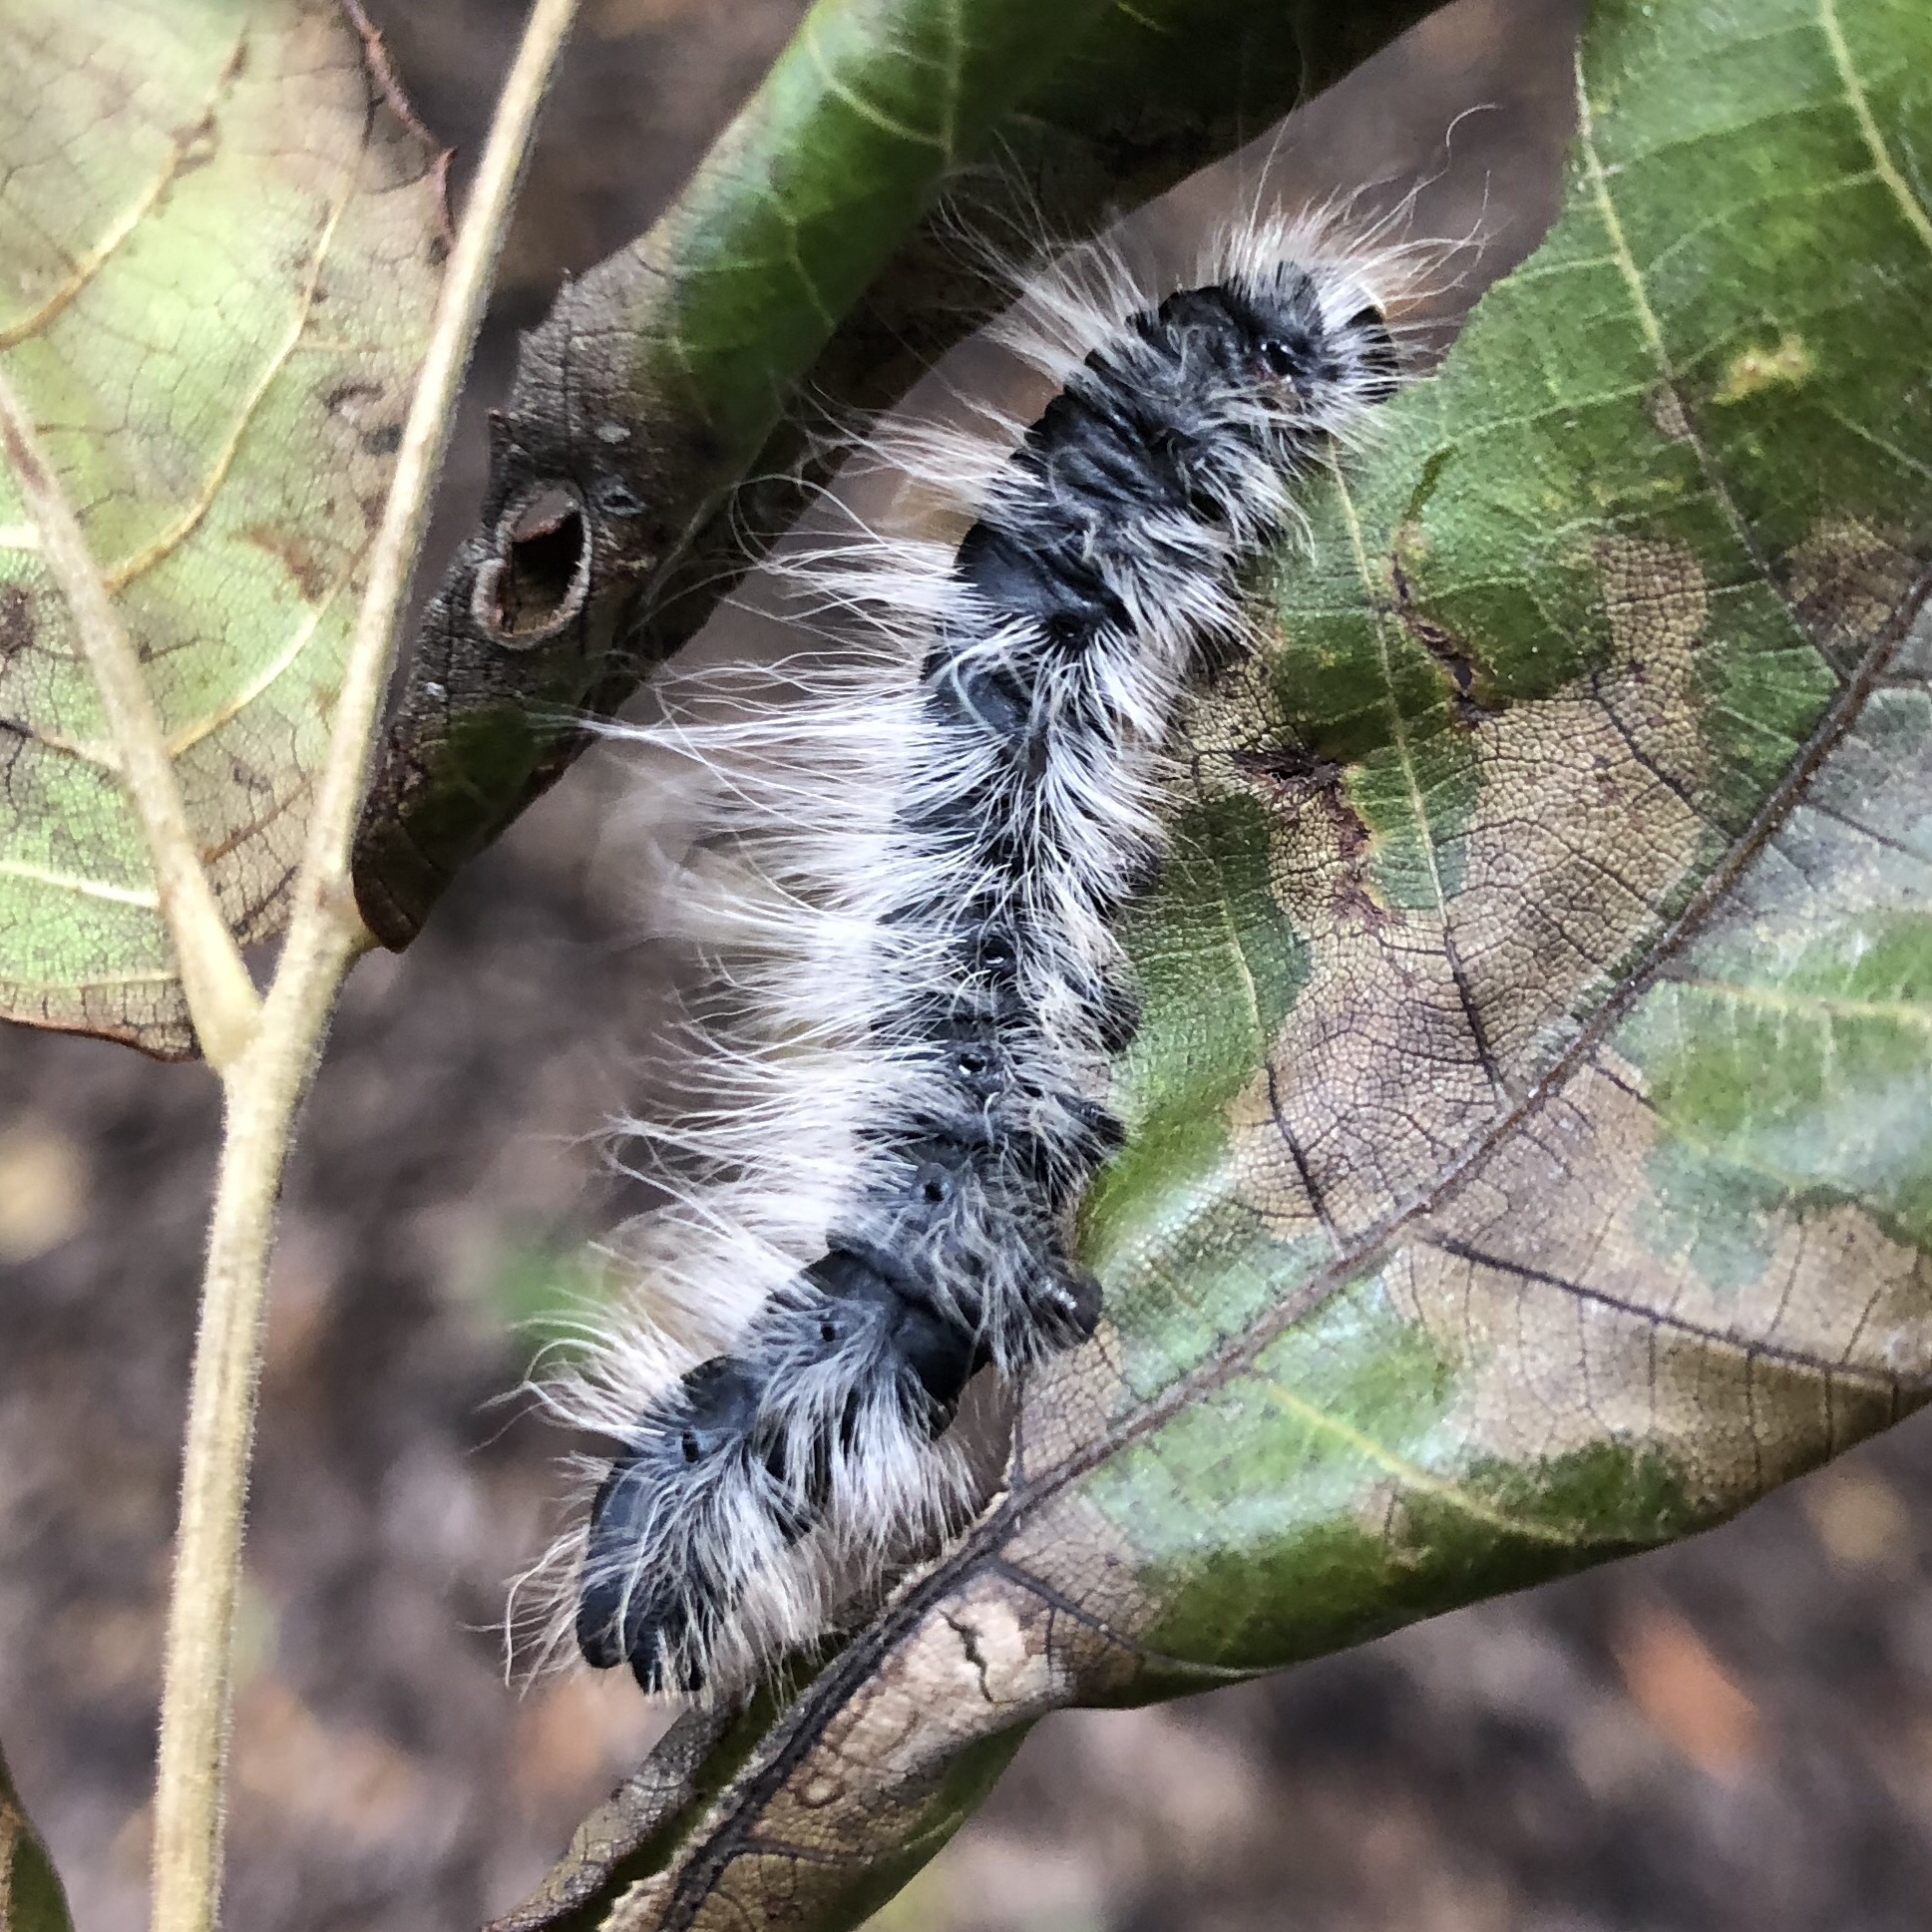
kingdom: Animalia
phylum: Arthropoda
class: Insecta
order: Lepidoptera
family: Notodontidae
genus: Datana
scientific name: Datana integerrima
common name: Walnut caterpillar
